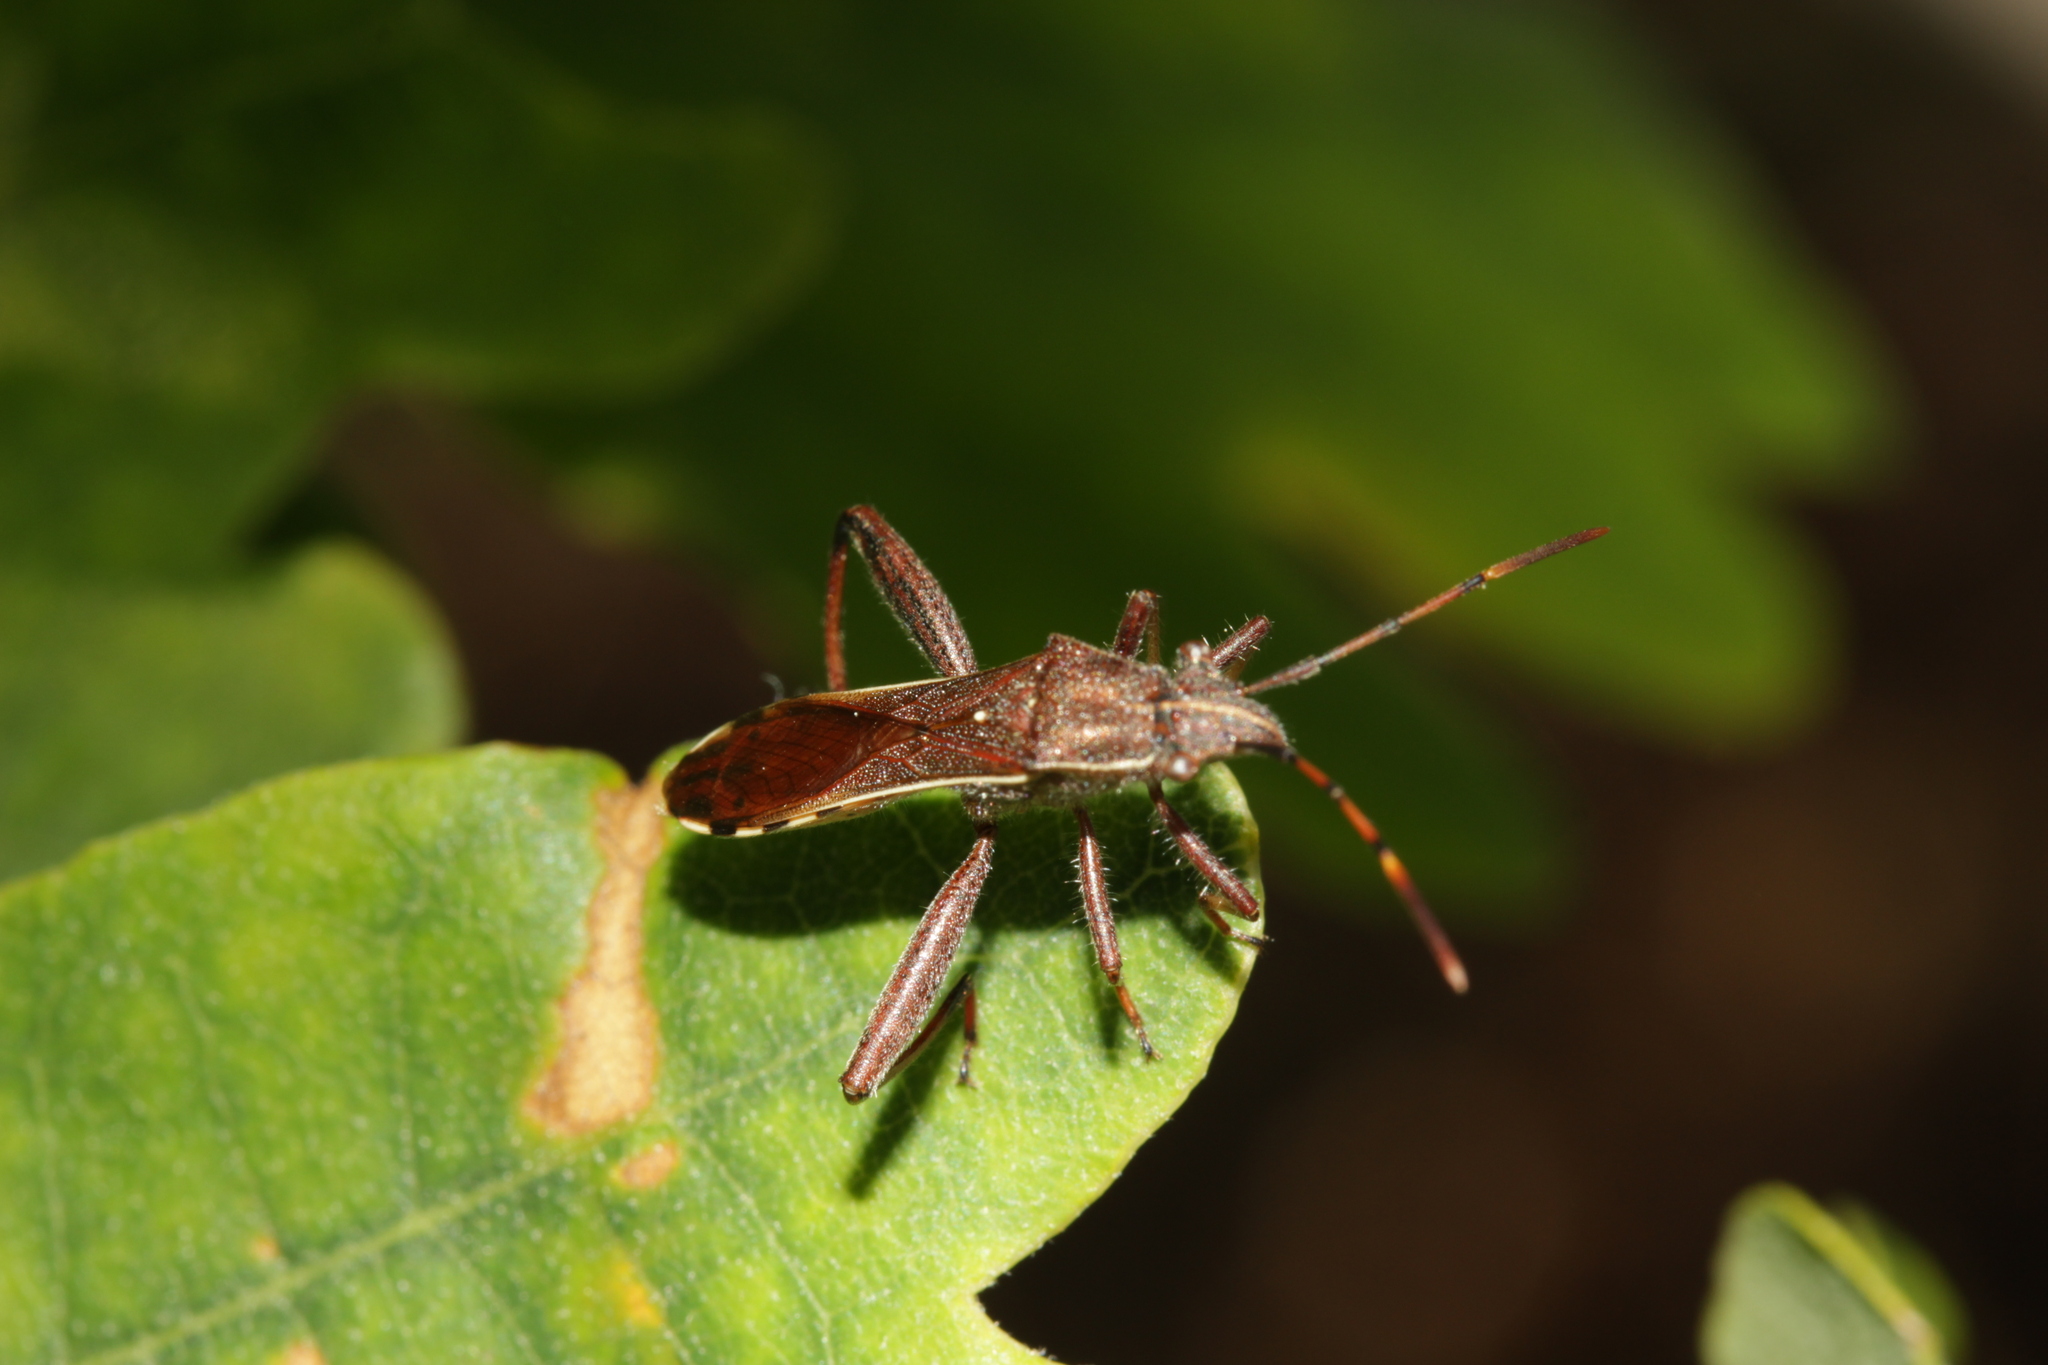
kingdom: Animalia
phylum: Arthropoda
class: Insecta
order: Hemiptera
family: Alydidae
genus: Camptopus
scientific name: Camptopus lateralis
